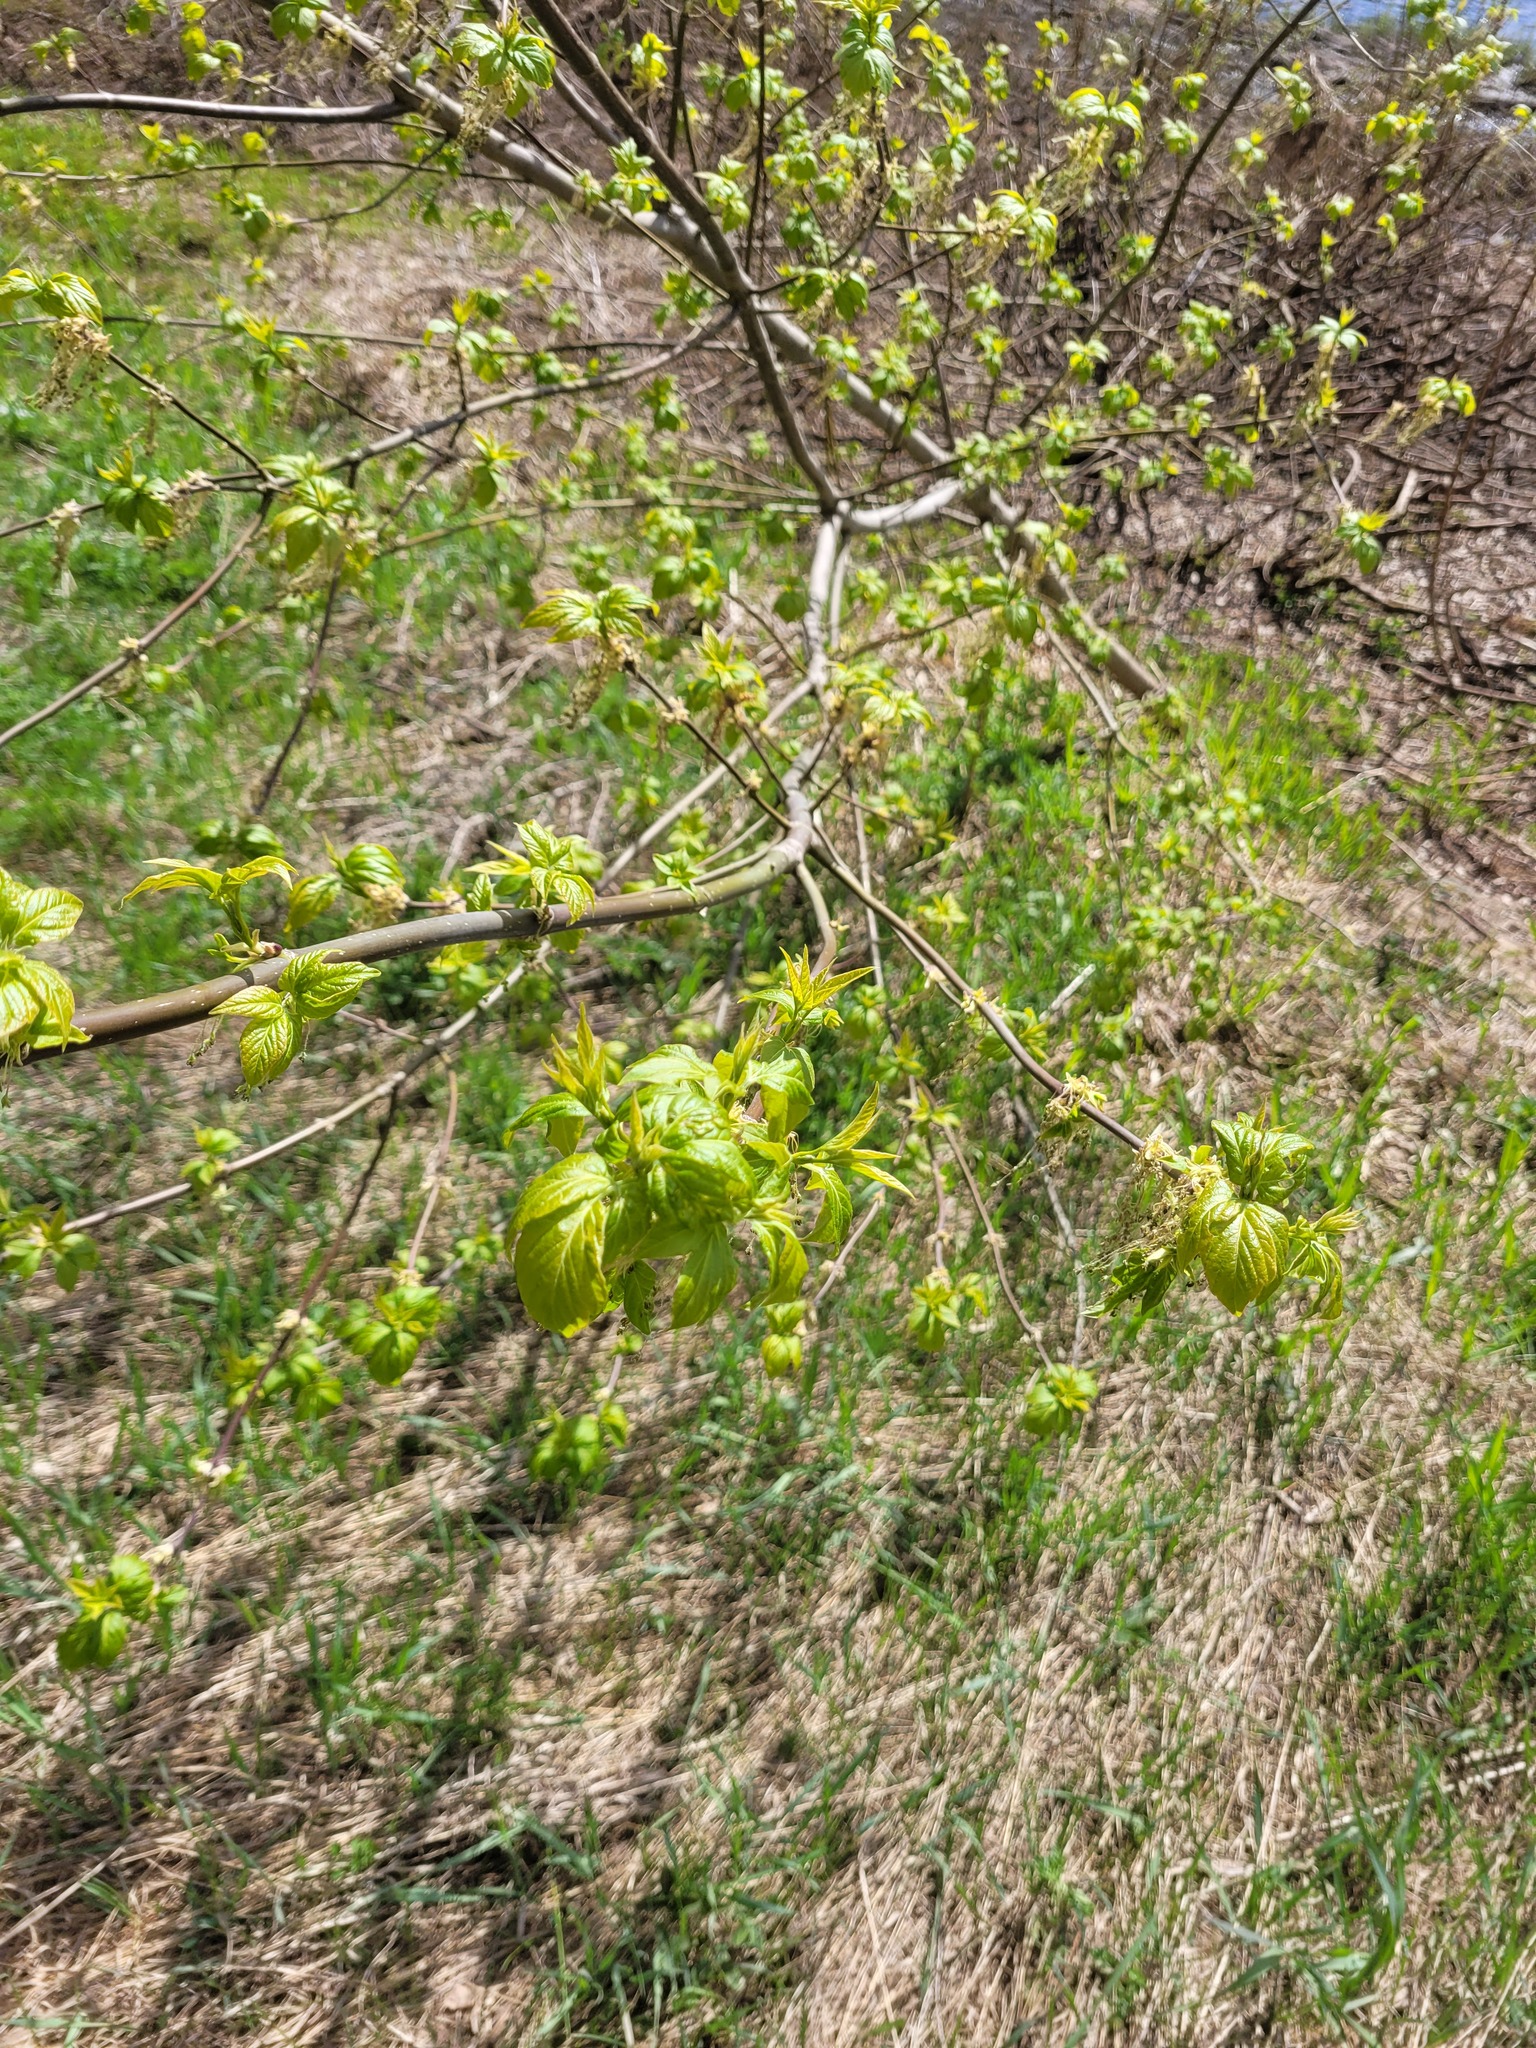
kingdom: Plantae
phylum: Tracheophyta
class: Magnoliopsida
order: Sapindales
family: Sapindaceae
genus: Acer
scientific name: Acer negundo
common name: Ashleaf maple
